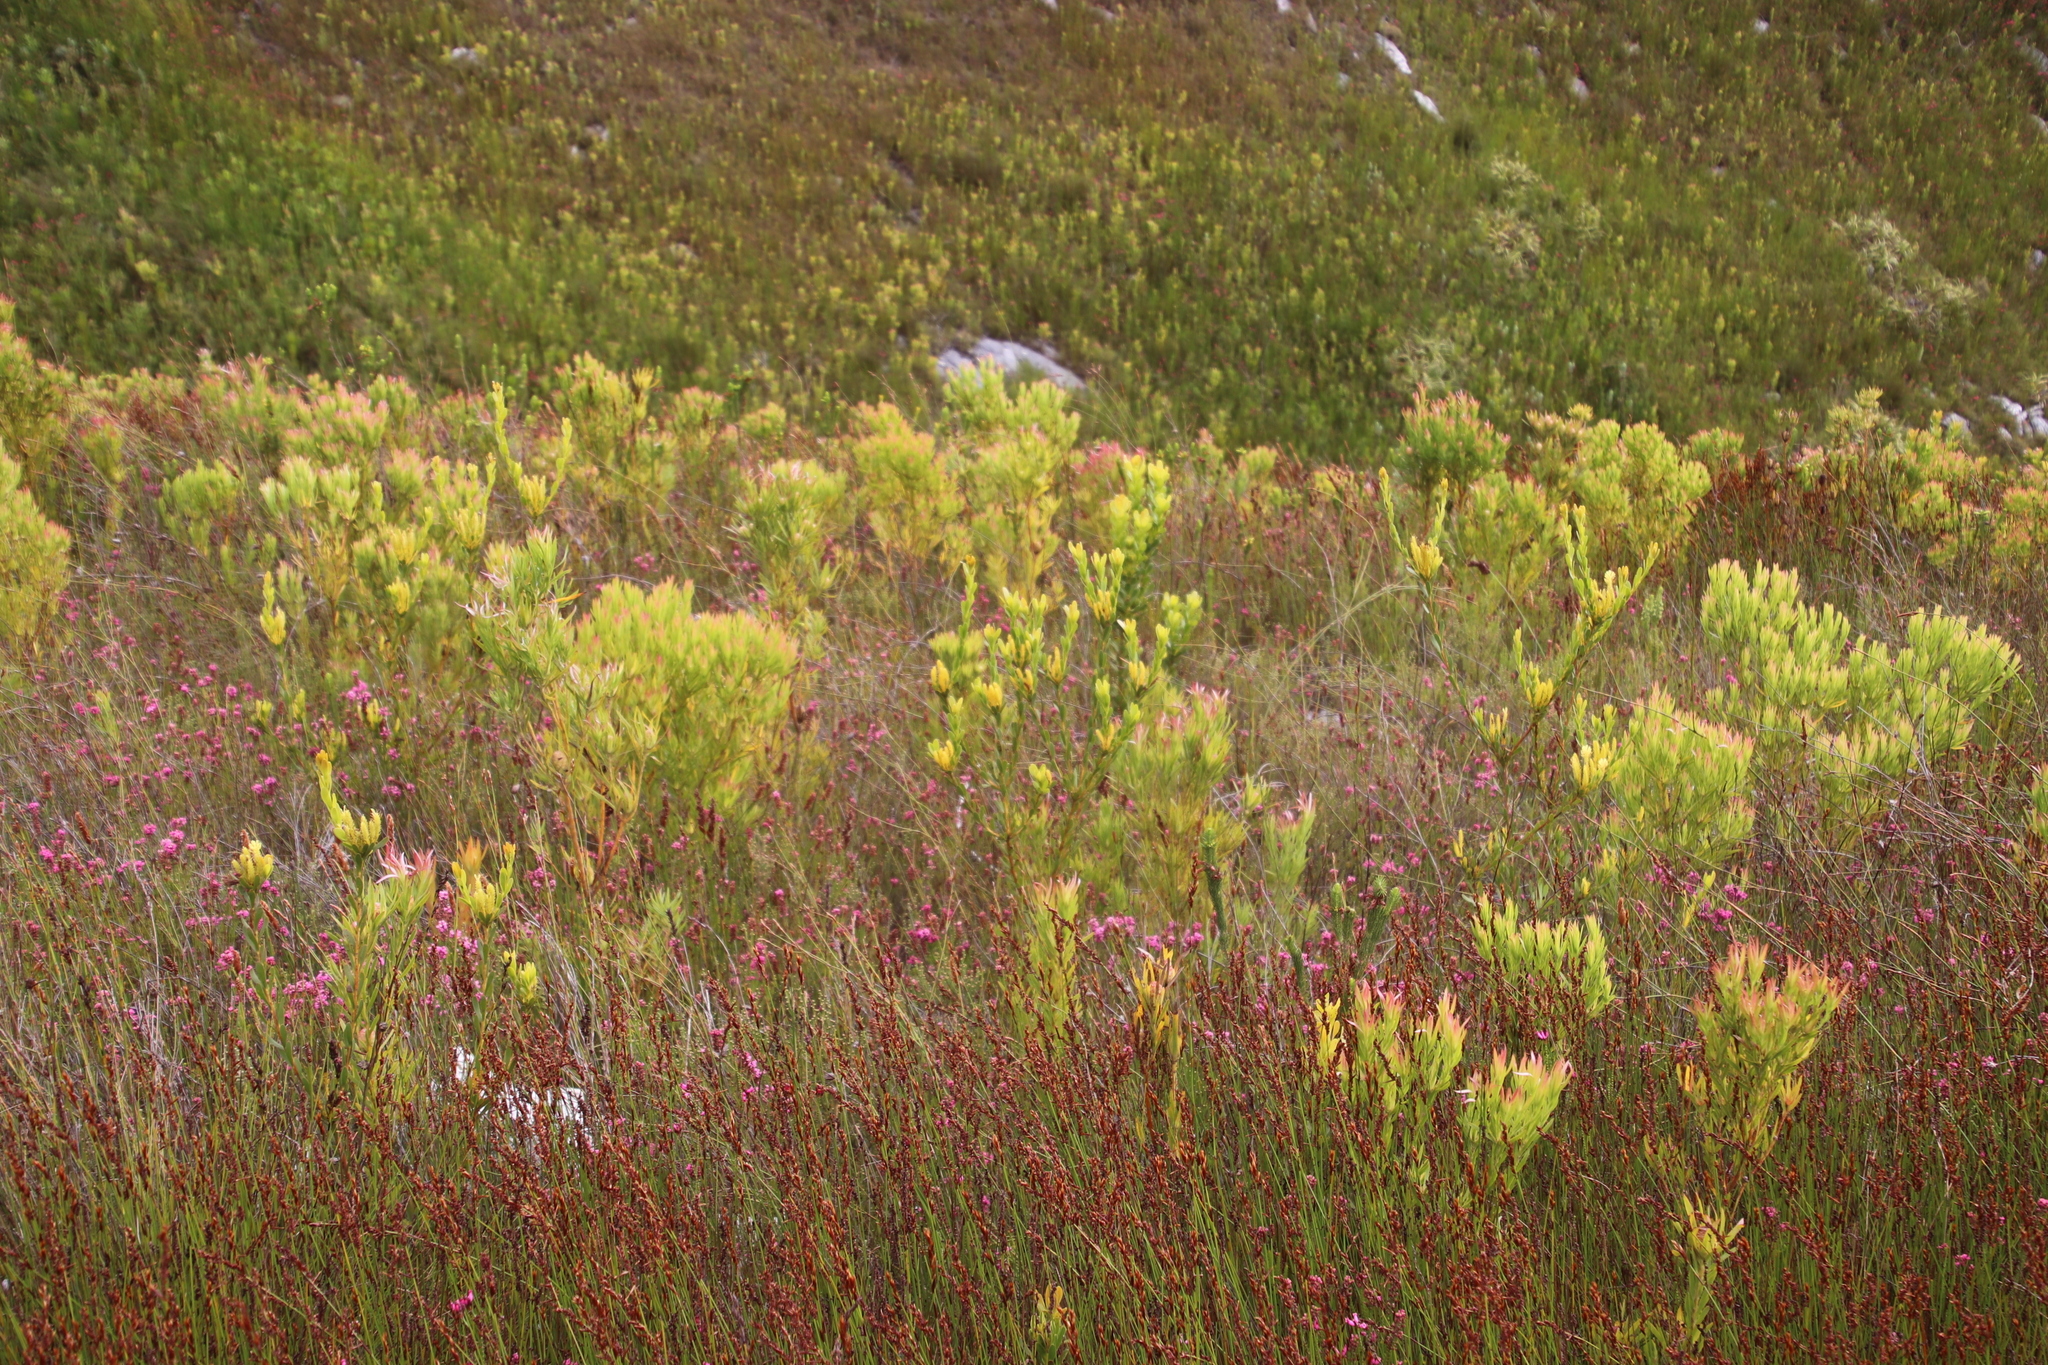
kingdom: Plantae
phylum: Tracheophyta
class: Magnoliopsida
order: Proteales
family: Proteaceae
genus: Aulax
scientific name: Aulax umbellata
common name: Broad-leaf featherbush
